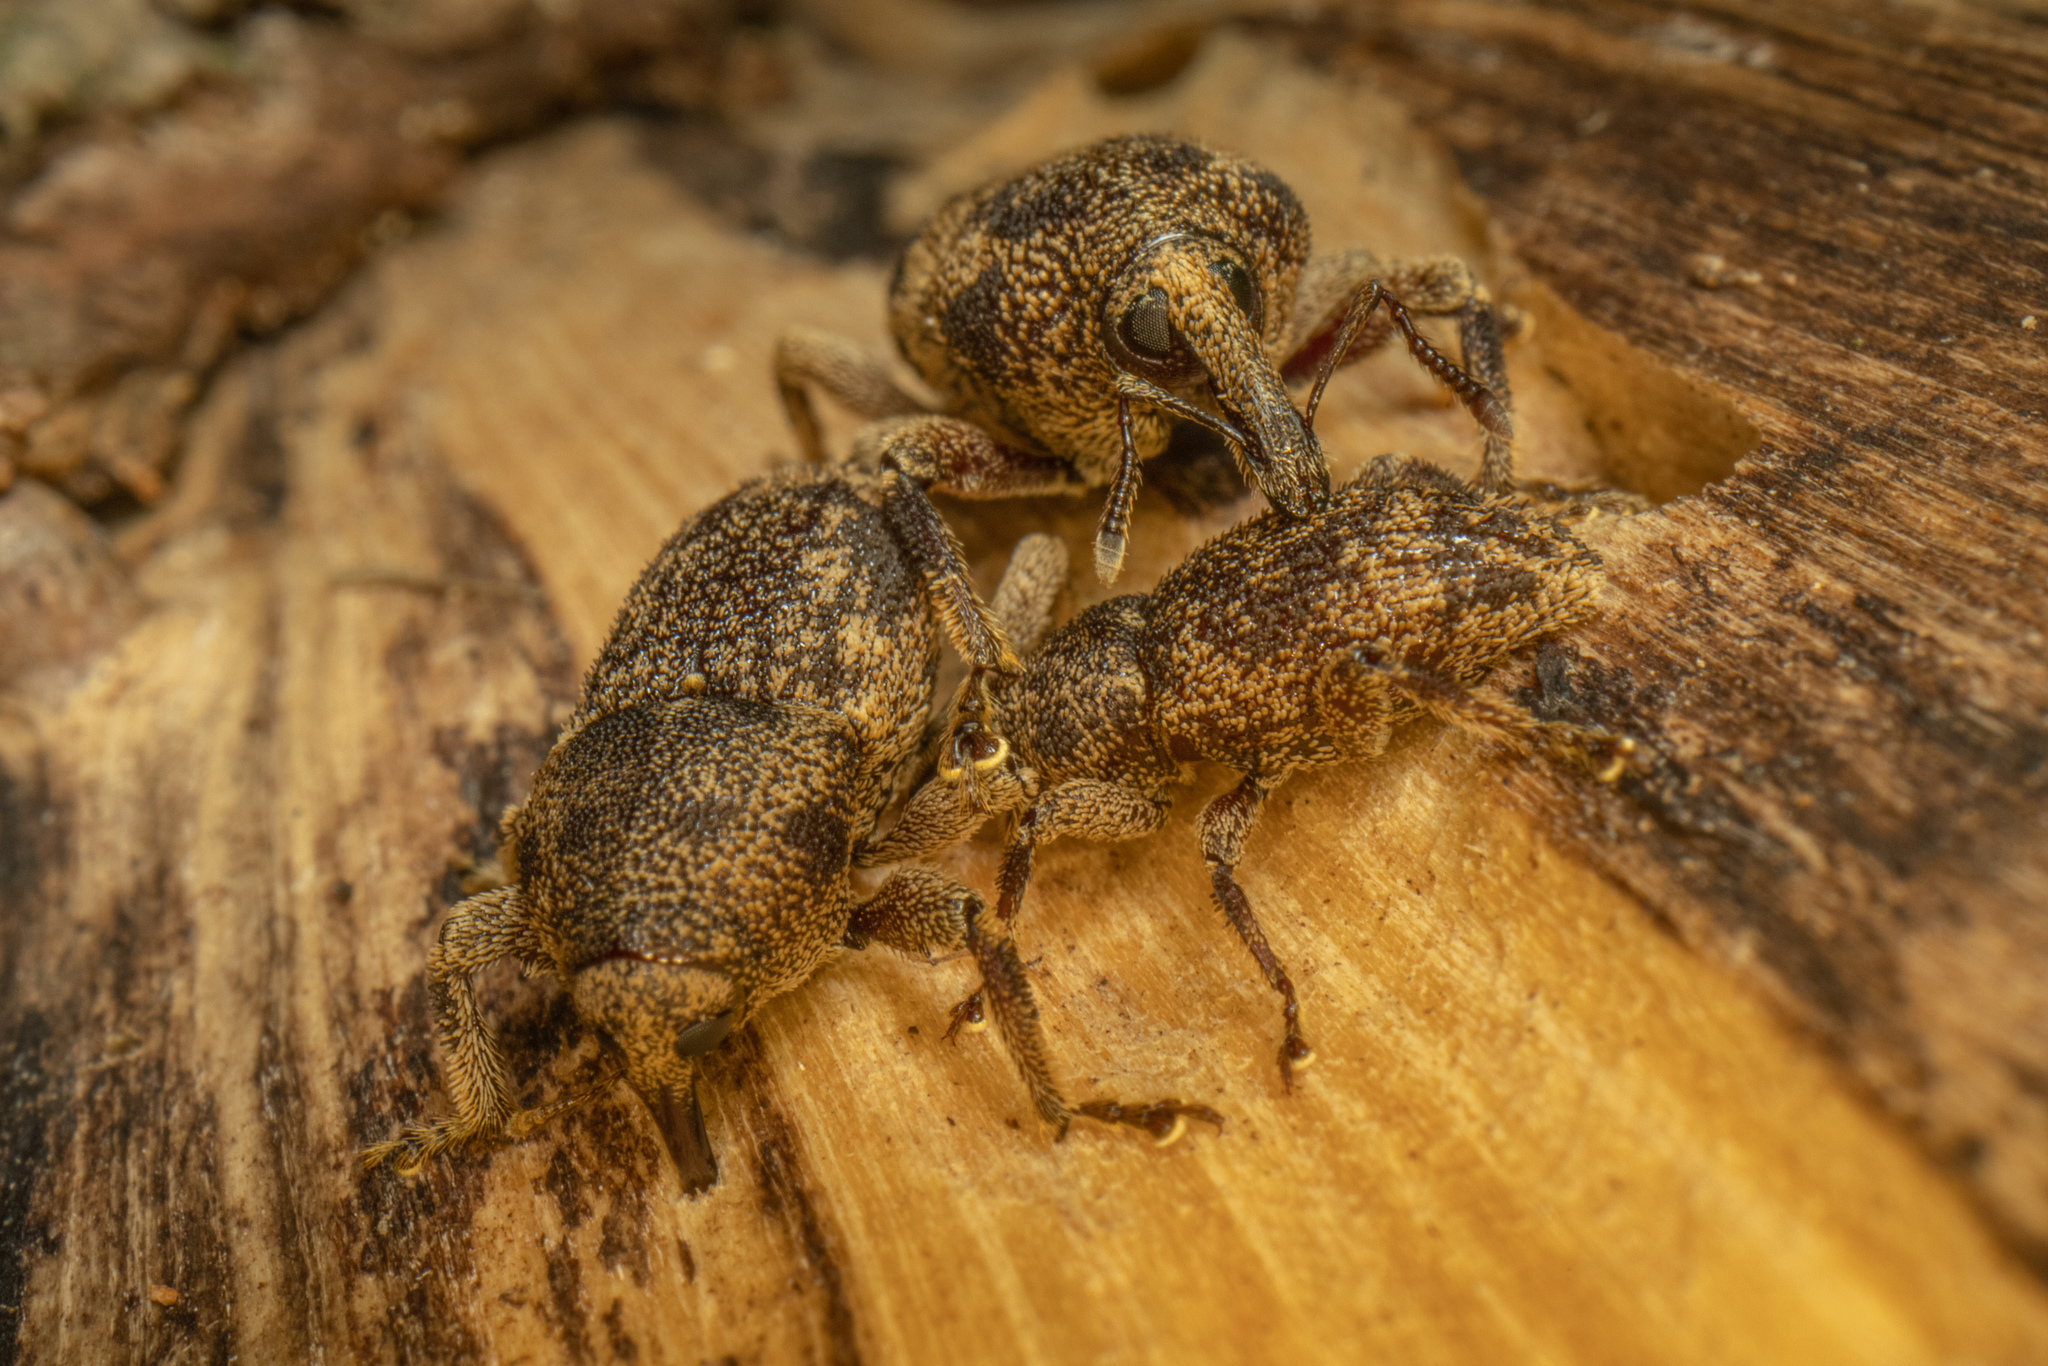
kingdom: Animalia
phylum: Arthropoda
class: Insecta
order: Coleoptera
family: Curculionidae
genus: Strongylopterus
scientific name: Strongylopterus hylopioides
